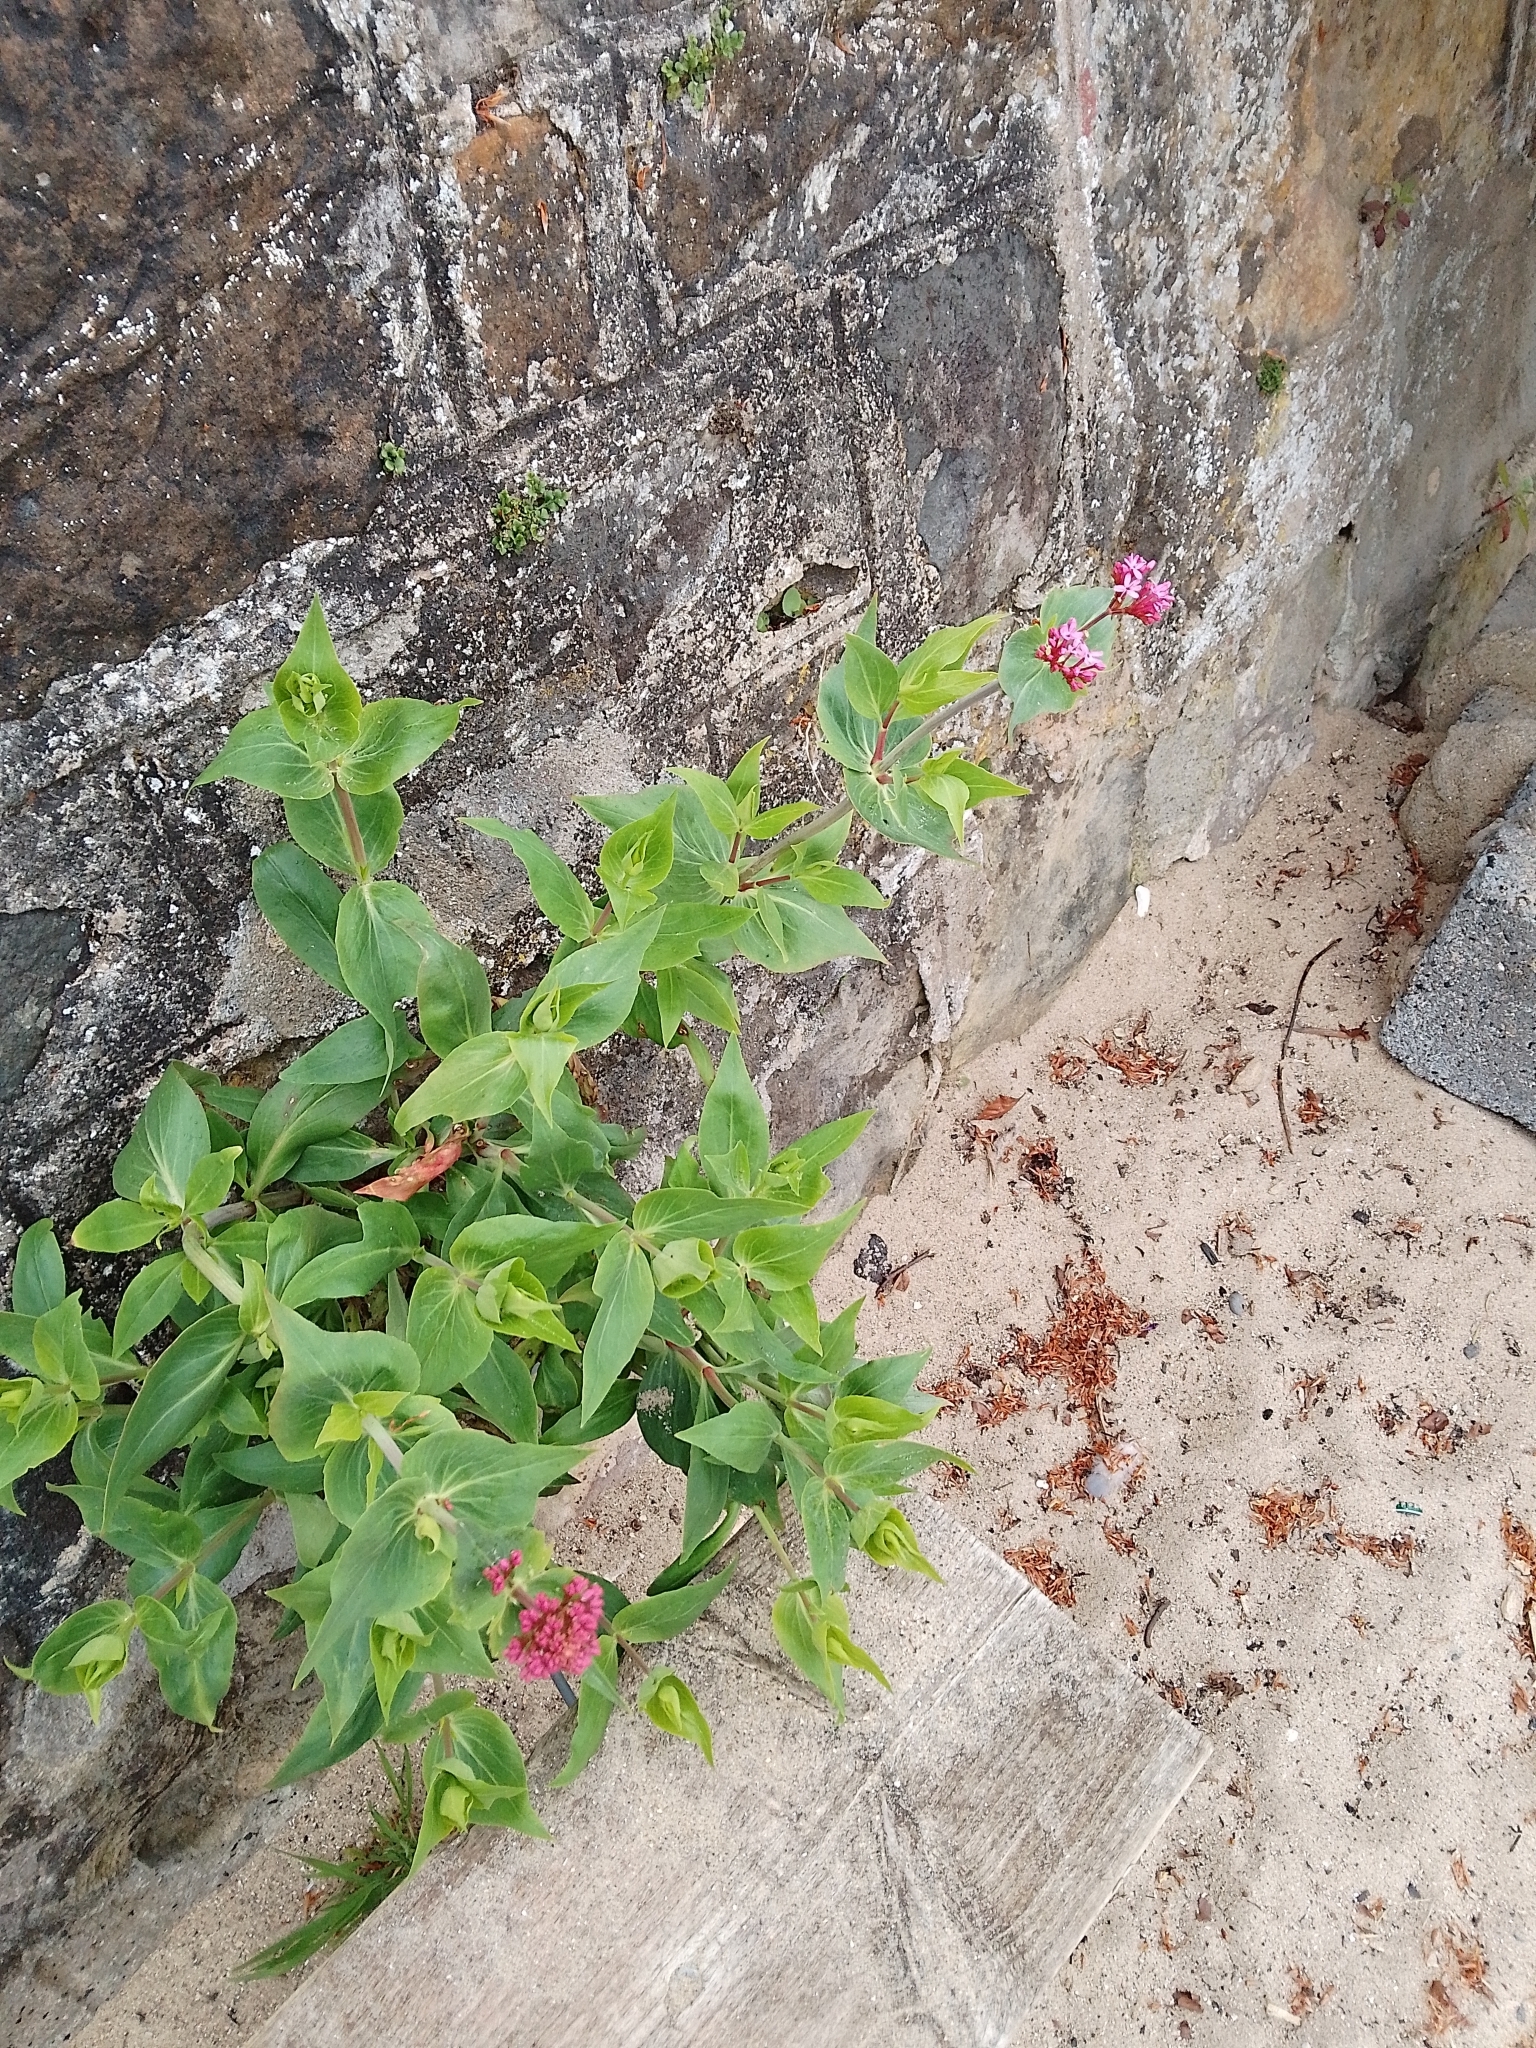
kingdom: Plantae
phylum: Tracheophyta
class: Magnoliopsida
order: Dipsacales
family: Caprifoliaceae
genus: Centranthus
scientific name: Centranthus ruber
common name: Red valerian
